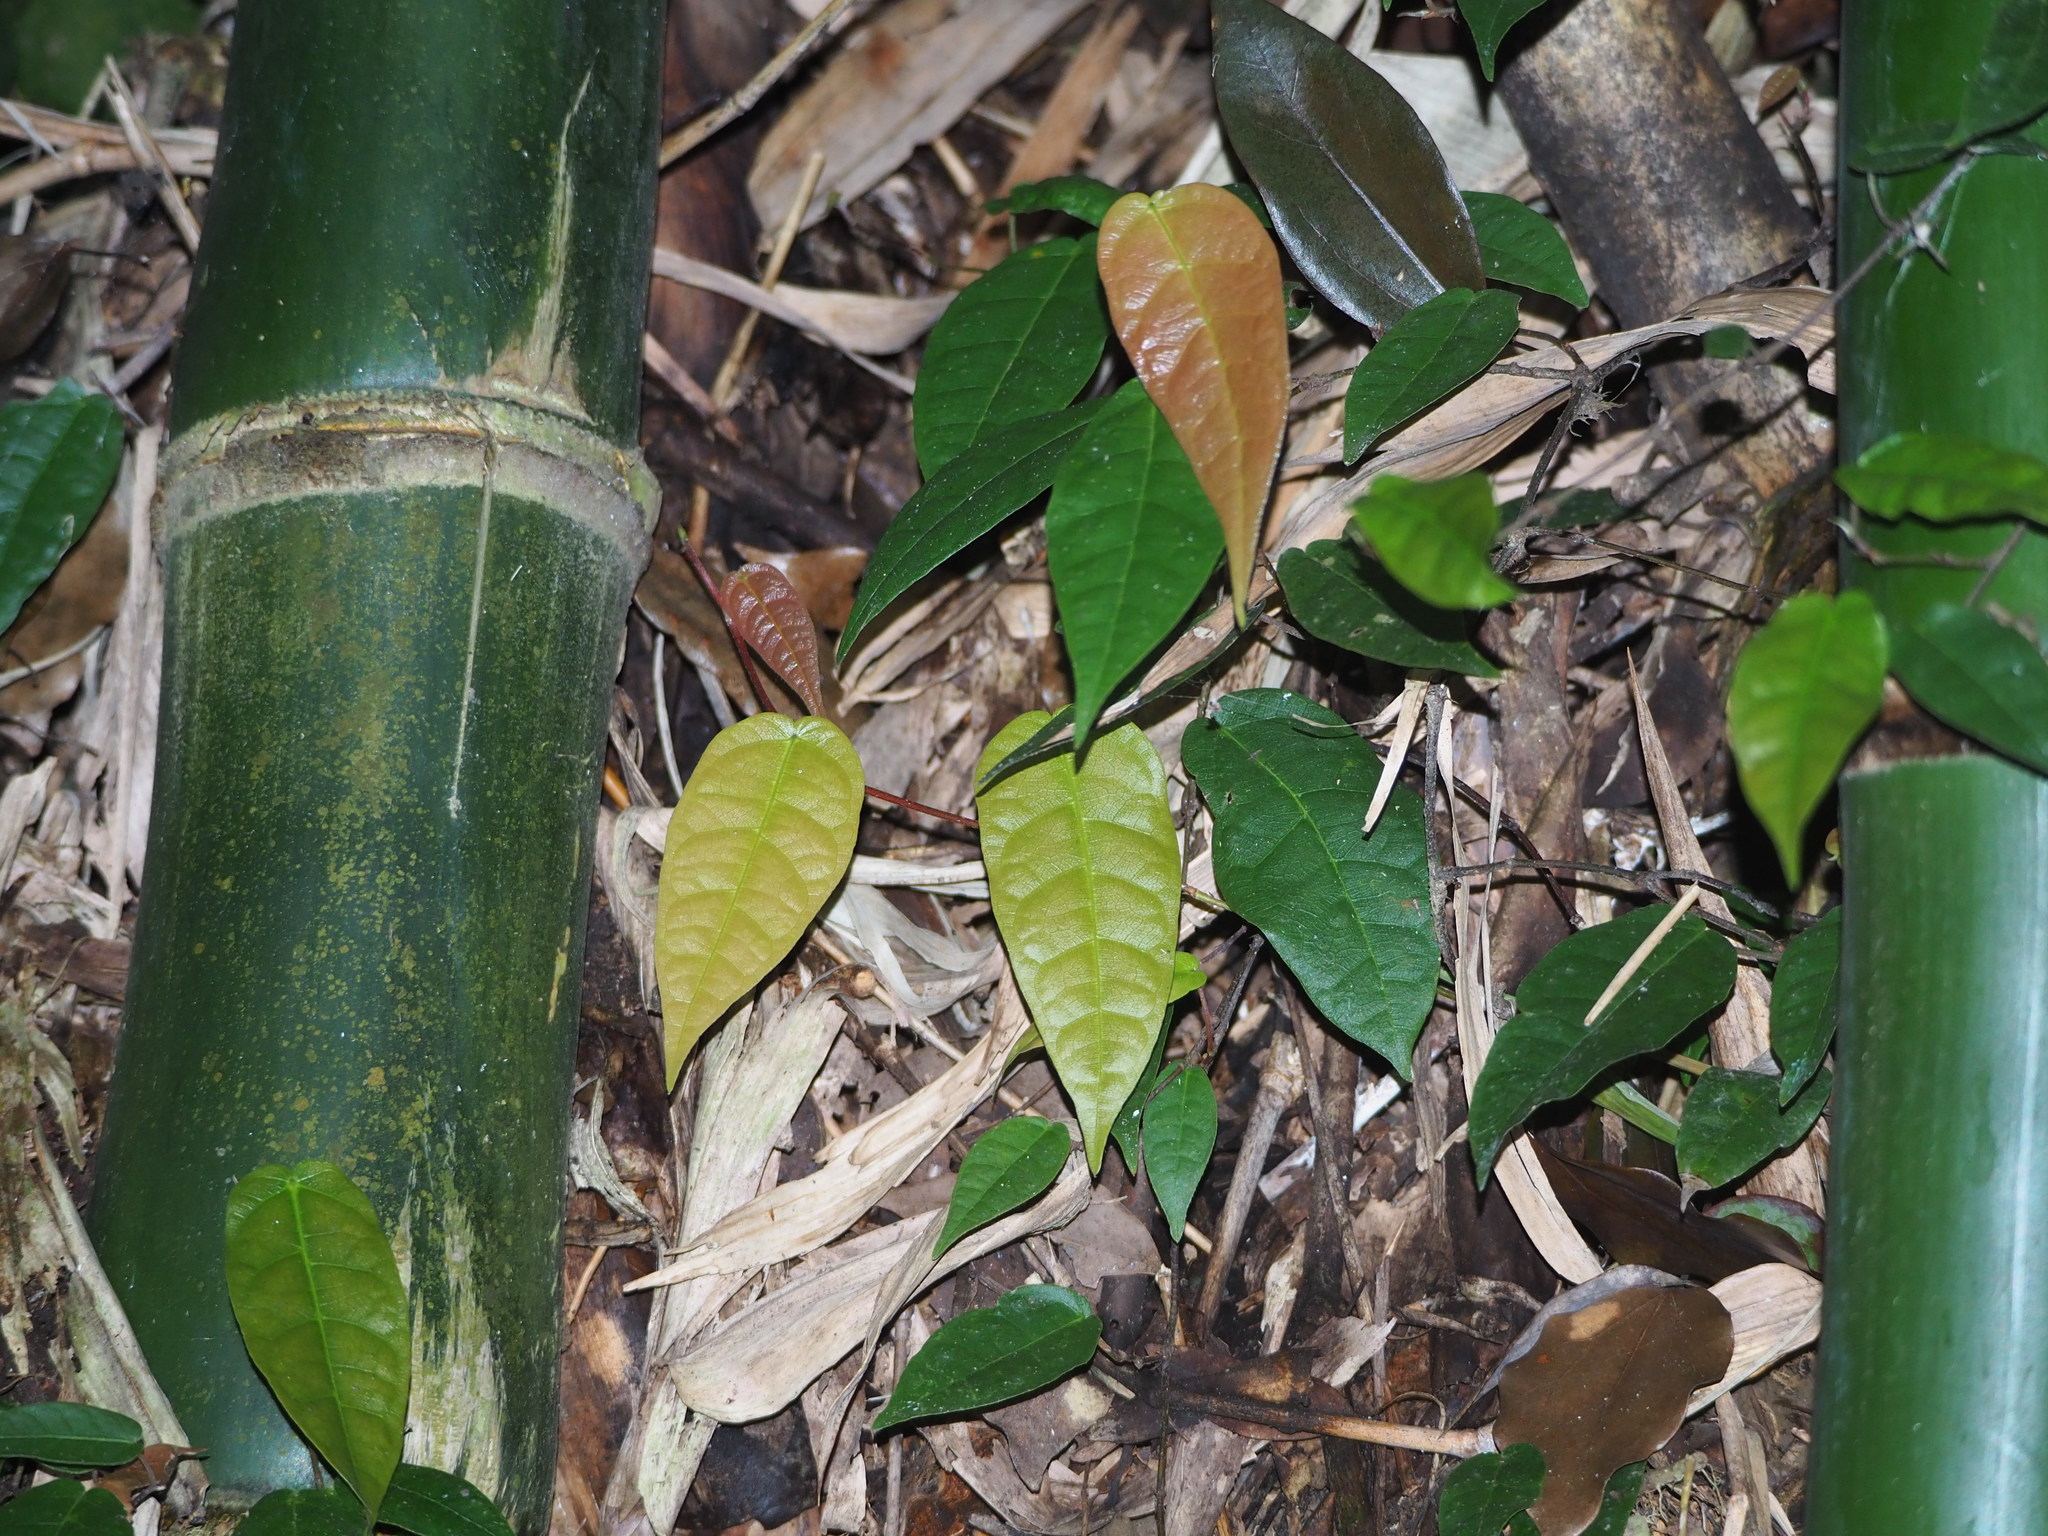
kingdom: Plantae
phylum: Tracheophyta
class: Magnoliopsida
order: Rosales
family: Moraceae
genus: Ficus
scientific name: Ficus sarmentosa
